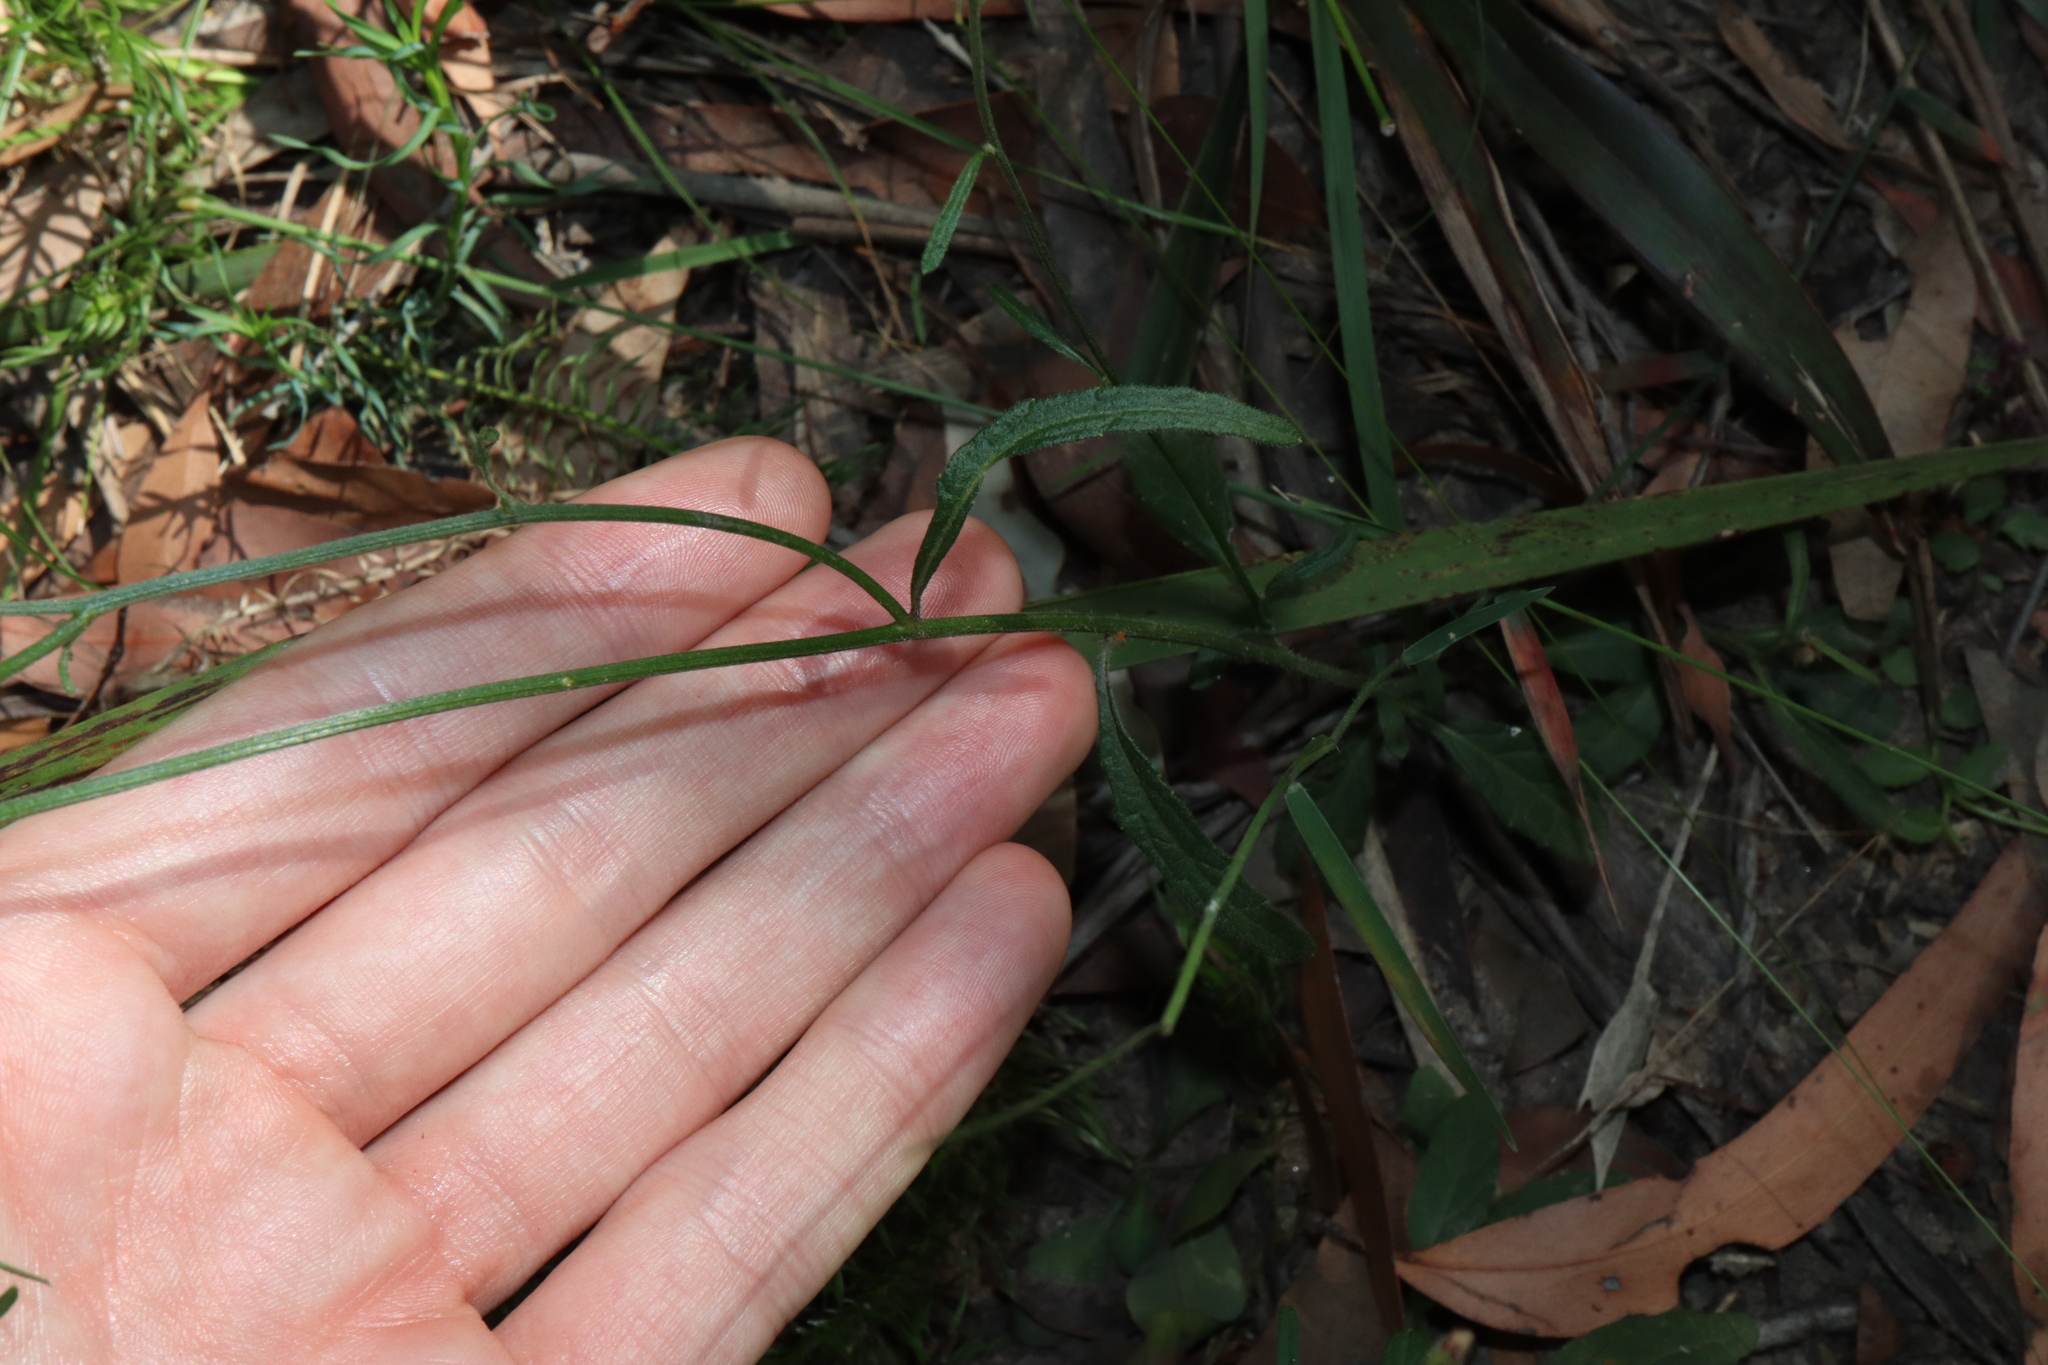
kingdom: Plantae
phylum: Tracheophyta
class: Magnoliopsida
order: Asterales
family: Asteraceae
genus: Cyanthillium
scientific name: Cyanthillium cinereum
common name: Little ironweed
